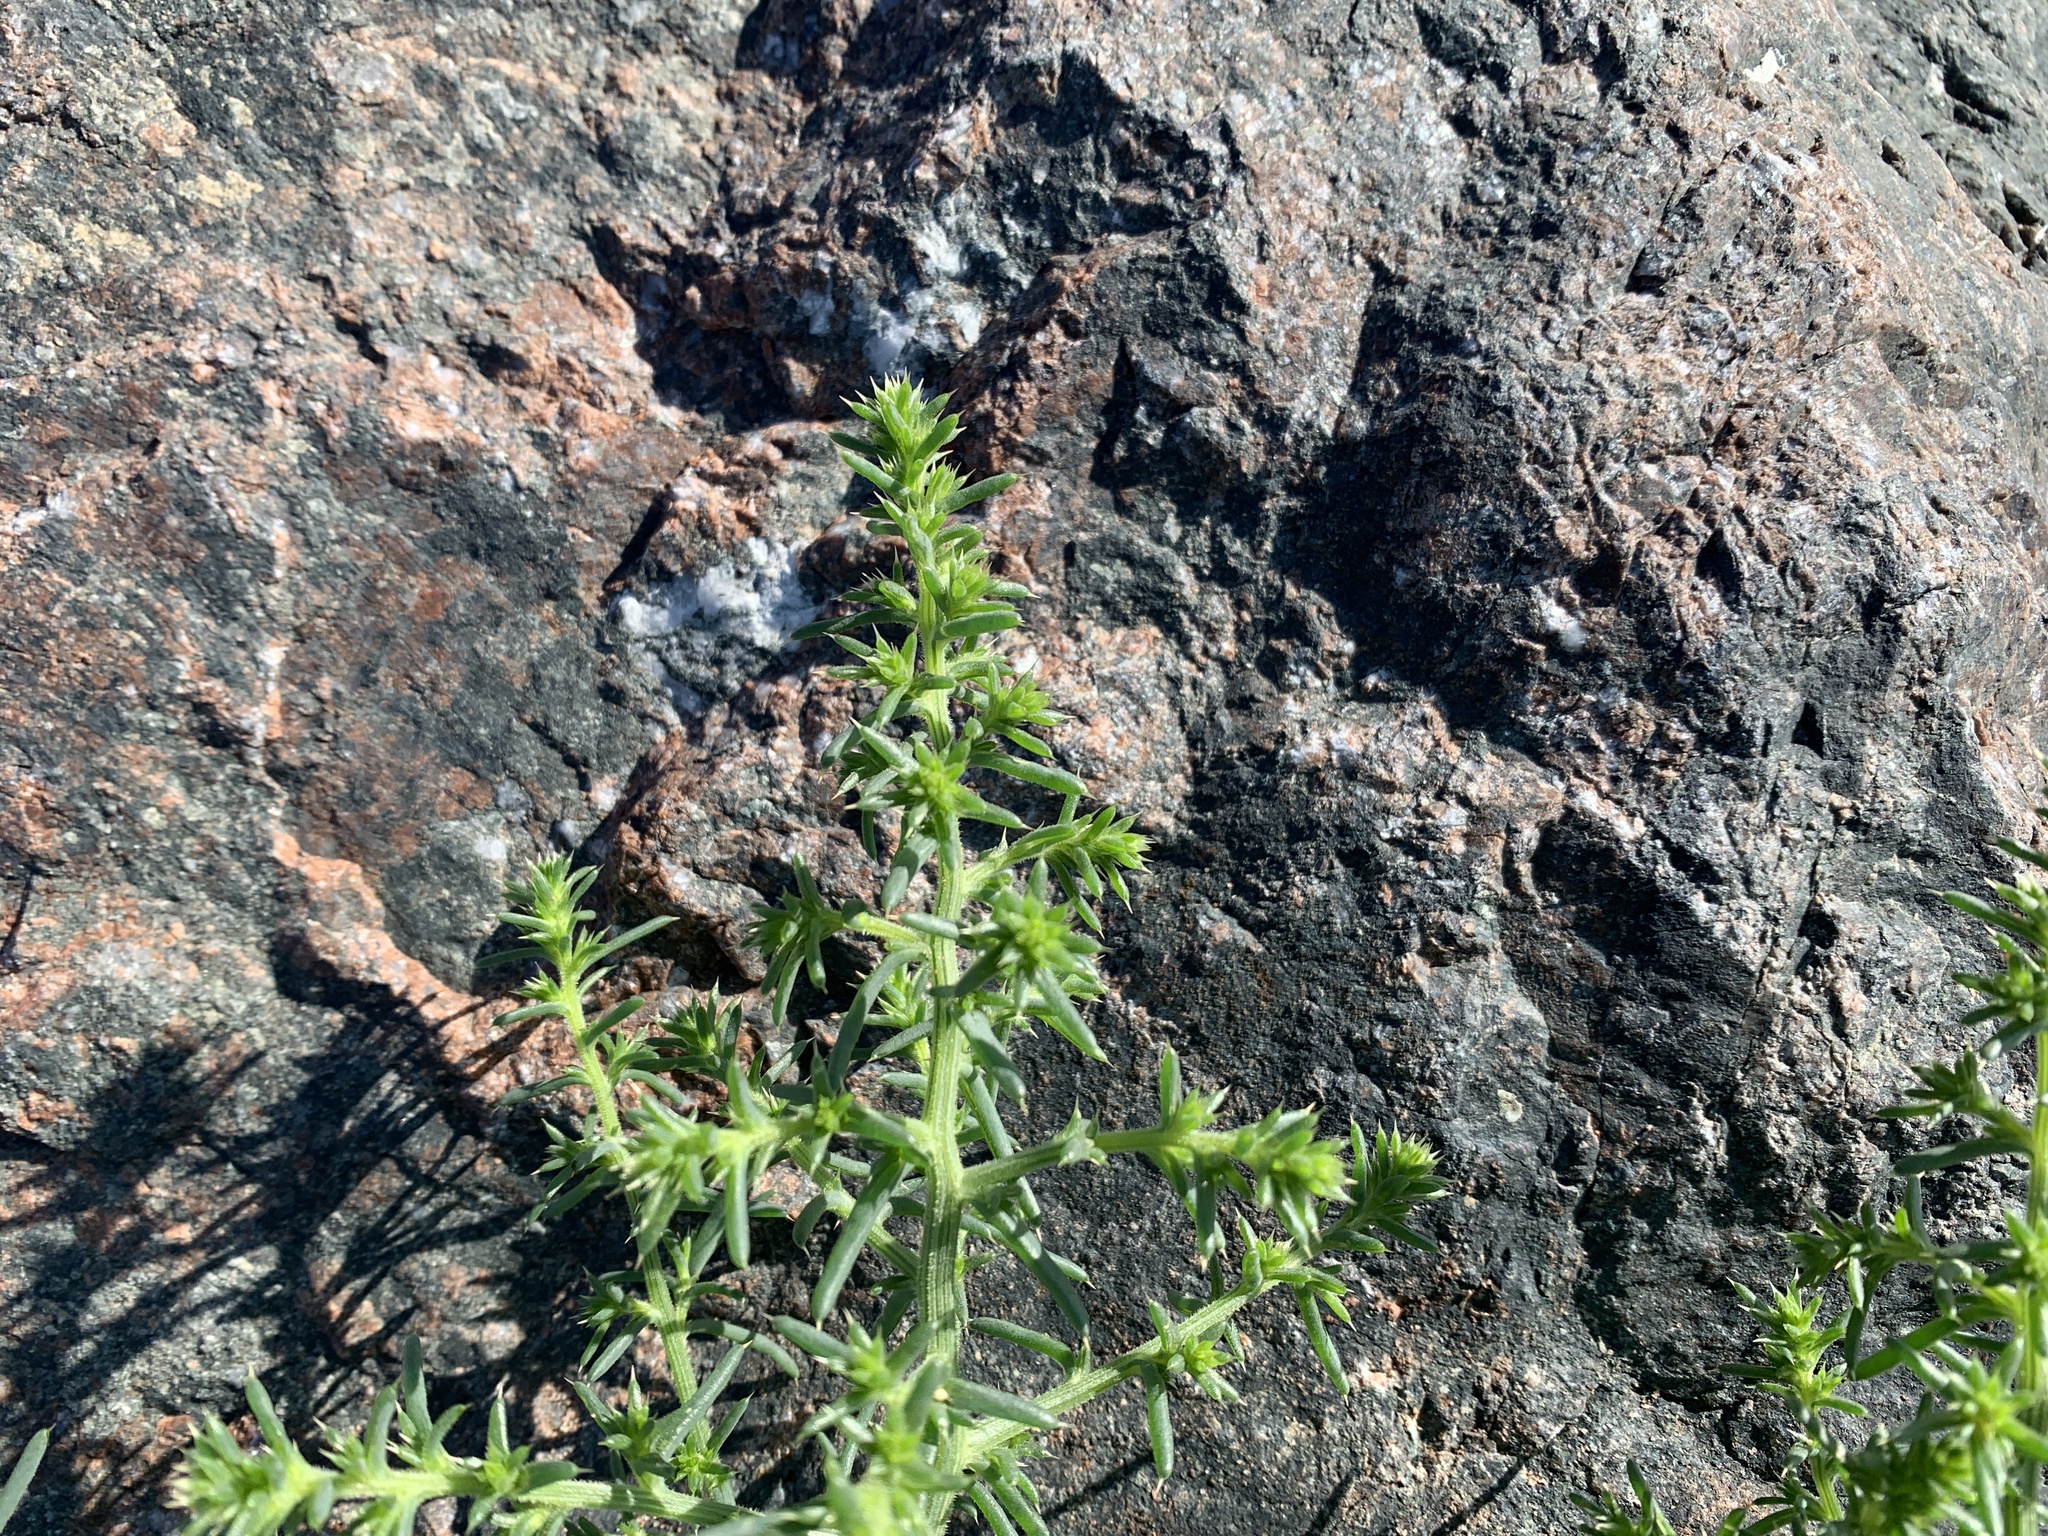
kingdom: Plantae
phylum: Tracheophyta
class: Magnoliopsida
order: Caryophyllales
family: Amaranthaceae
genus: Salsola
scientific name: Salsola kali
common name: Saltwort
